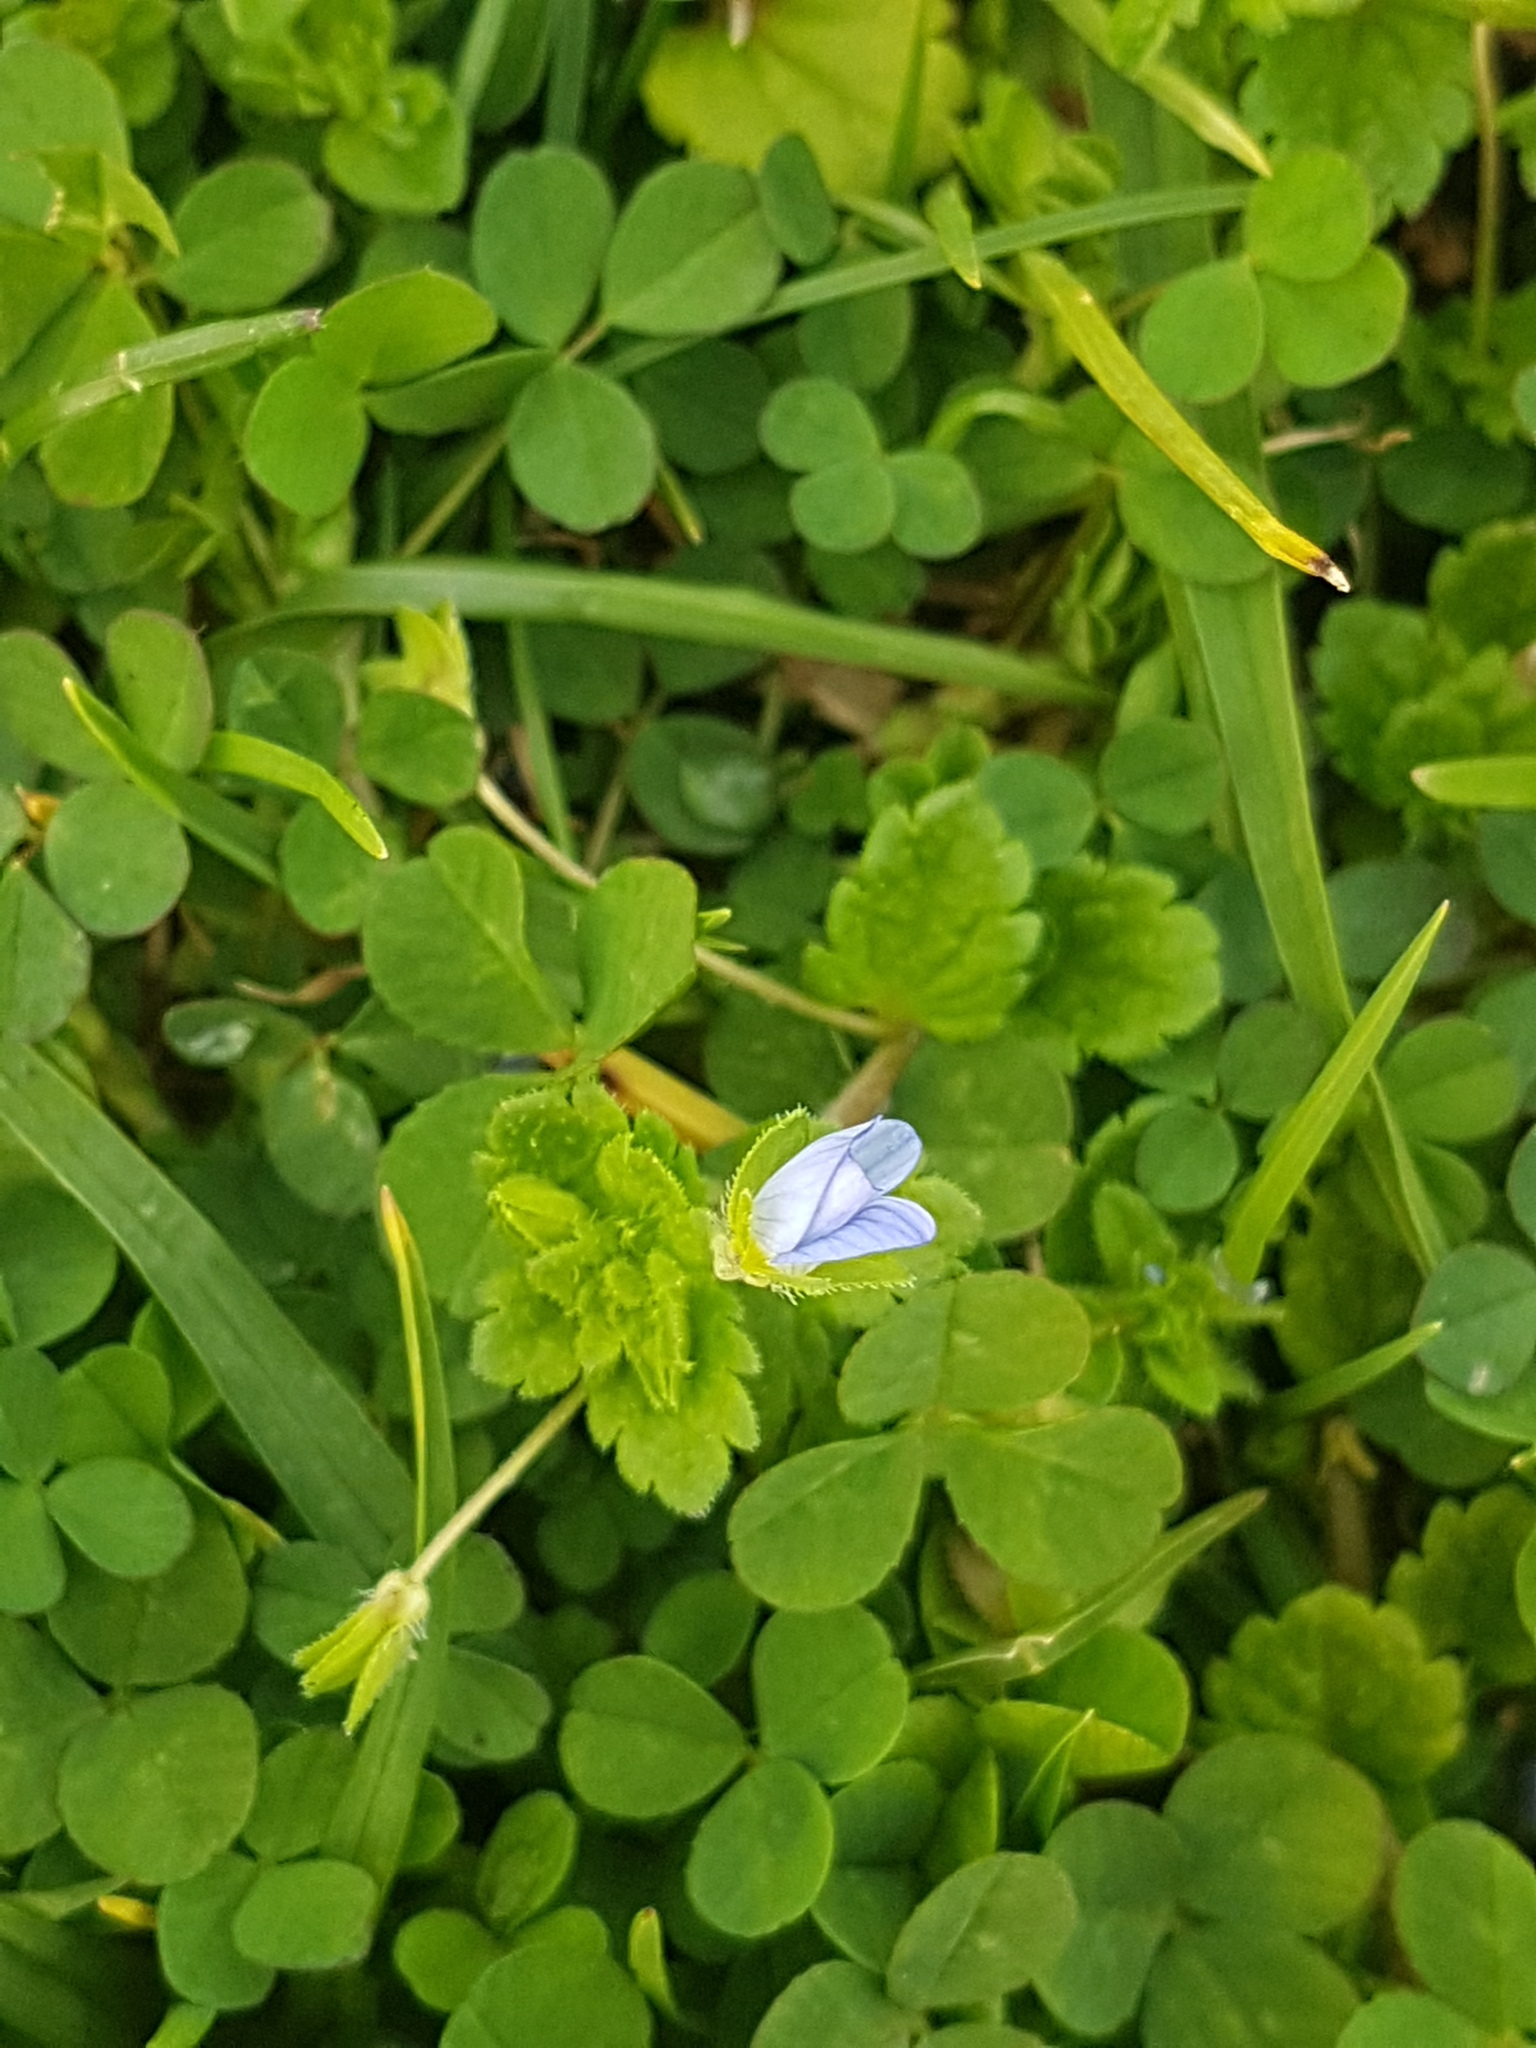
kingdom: Plantae
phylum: Tracheophyta
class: Magnoliopsida
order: Lamiales
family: Plantaginaceae
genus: Veronica
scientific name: Veronica persica
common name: Common field-speedwell
